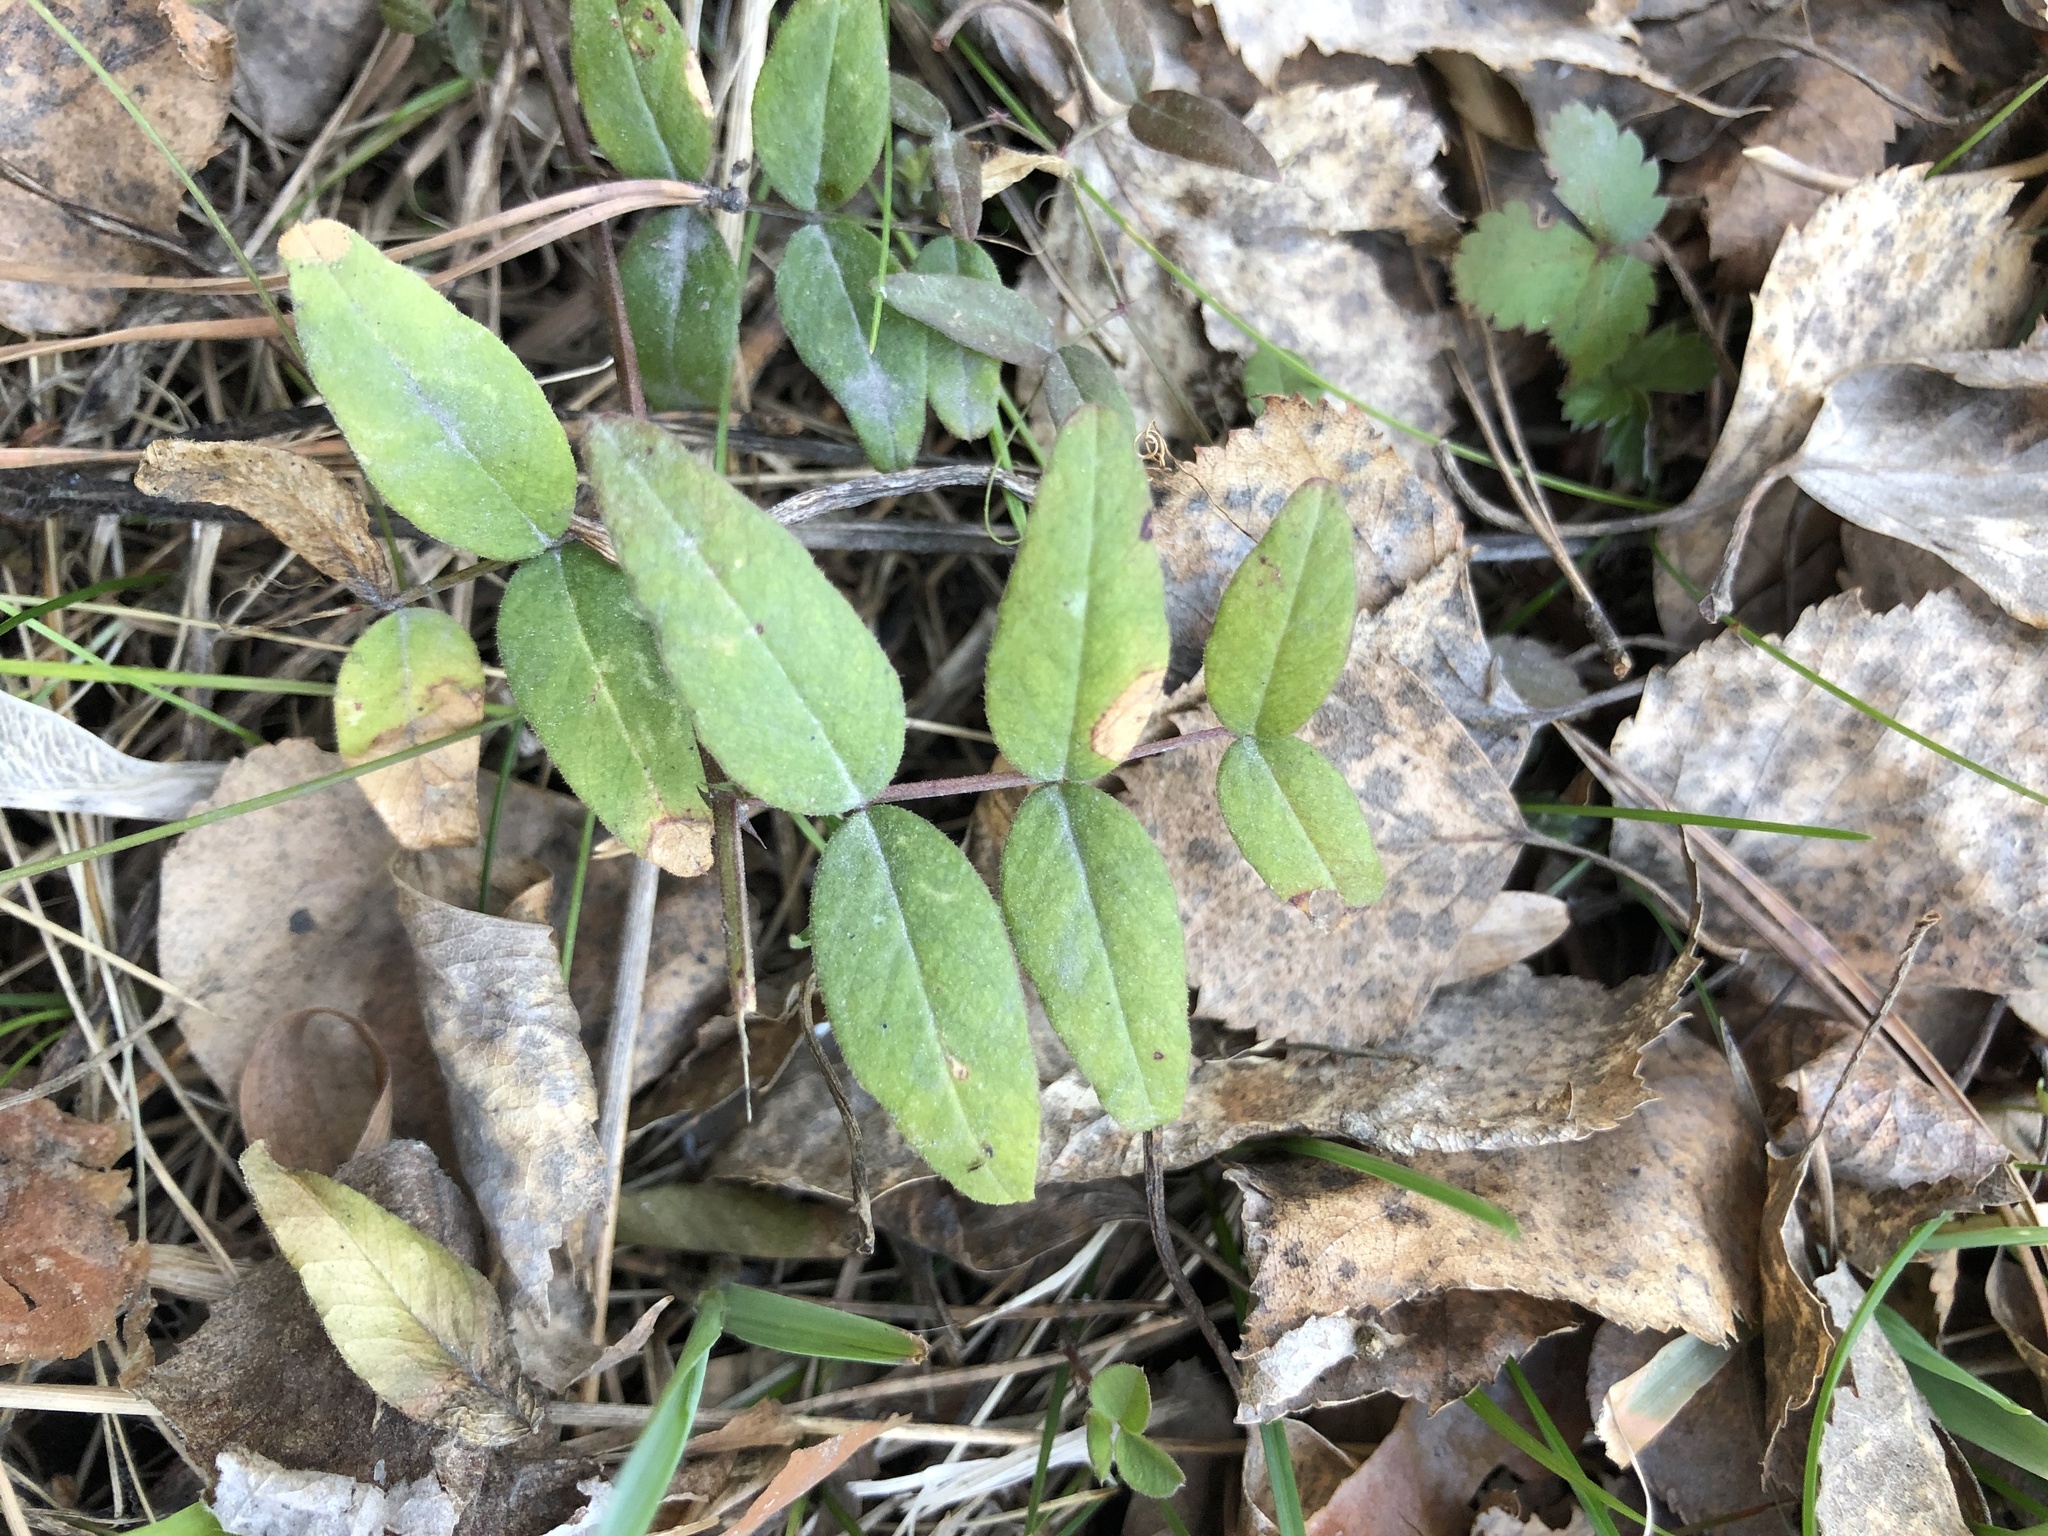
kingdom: Plantae
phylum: Tracheophyta
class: Magnoliopsida
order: Fabales
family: Fabaceae
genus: Vicia
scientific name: Vicia sepium
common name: Bush vetch
